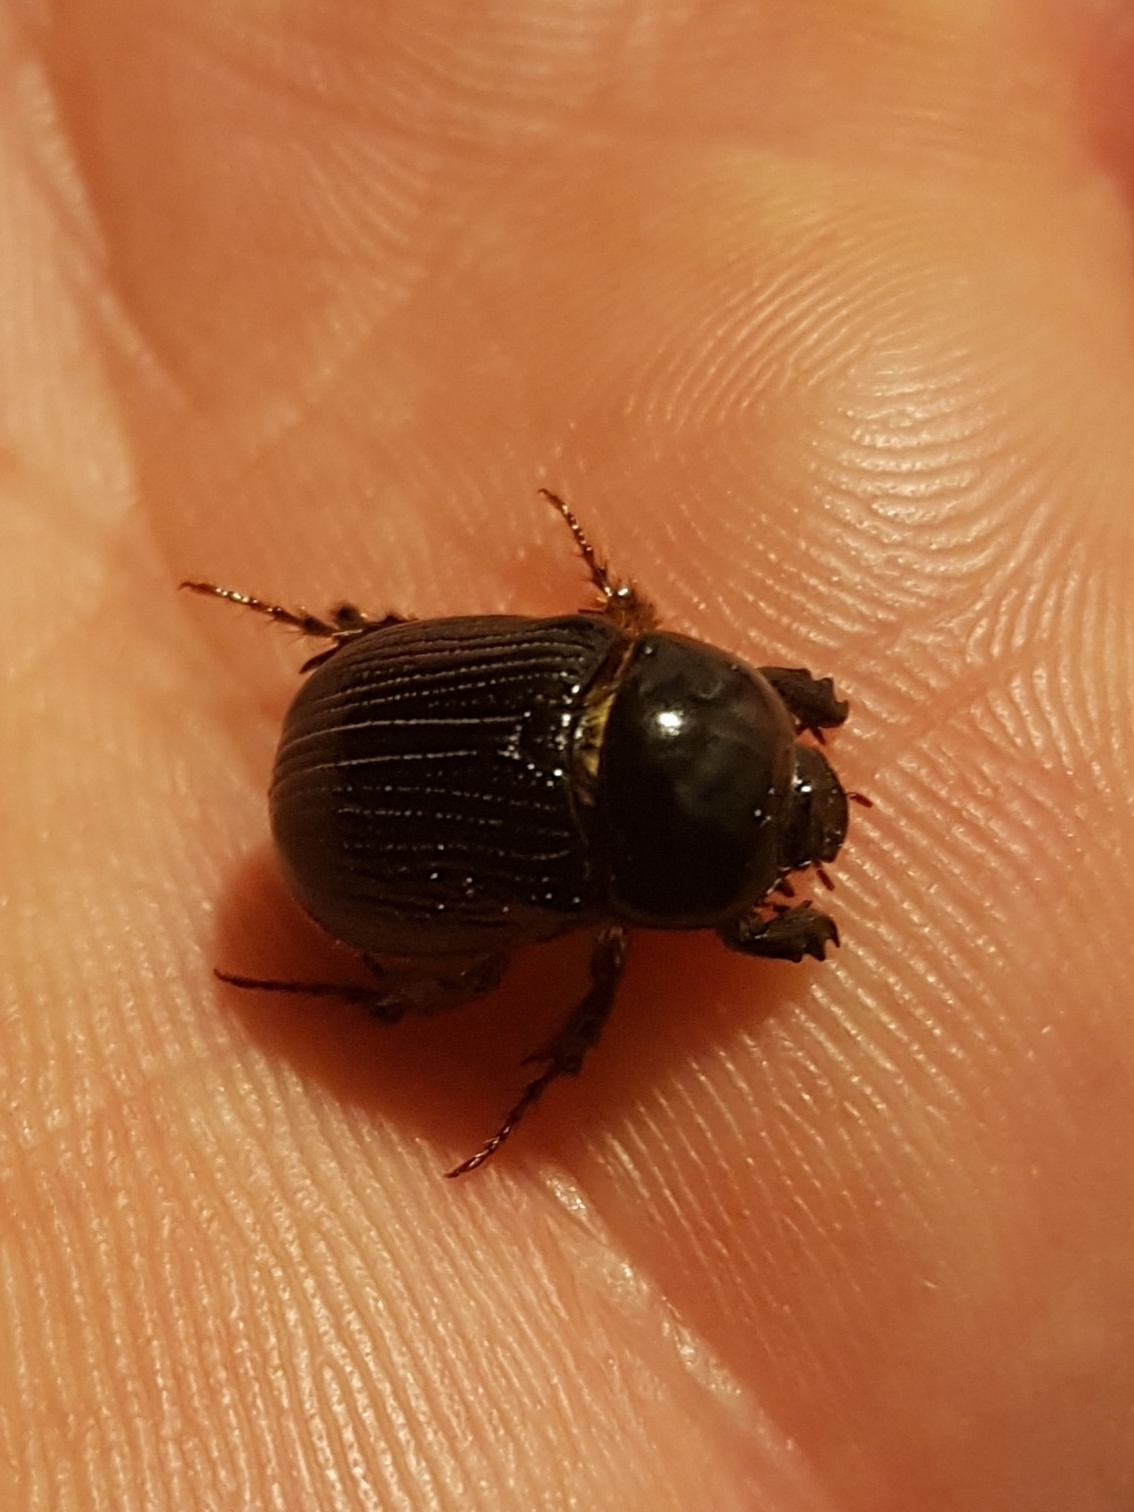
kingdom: Animalia
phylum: Arthropoda
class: Insecta
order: Coleoptera
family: Scarabaeidae
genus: Adoryphorus
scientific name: Adoryphorus couloni
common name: Redheaded pasture cockchafer
